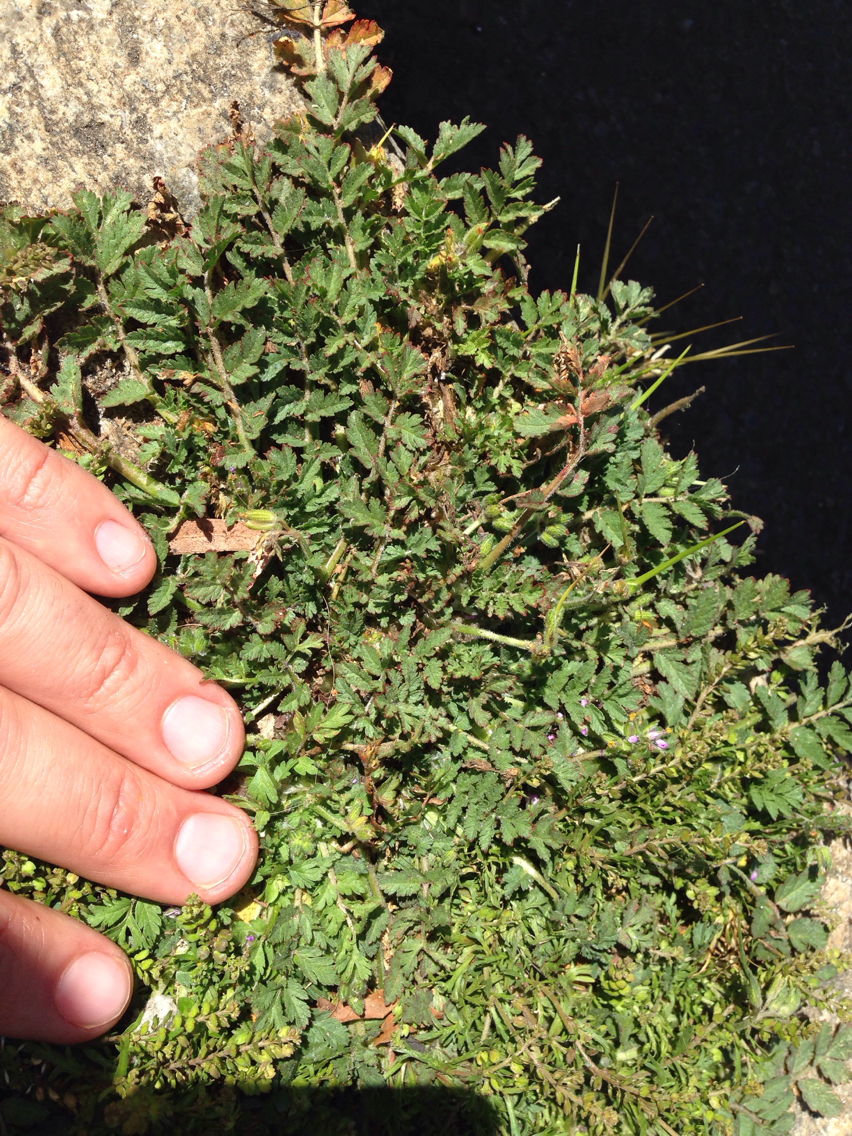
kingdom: Plantae
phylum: Tracheophyta
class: Magnoliopsida
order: Geraniales
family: Geraniaceae
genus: Erodium
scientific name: Erodium moschatum
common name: Musk stork's-bill
